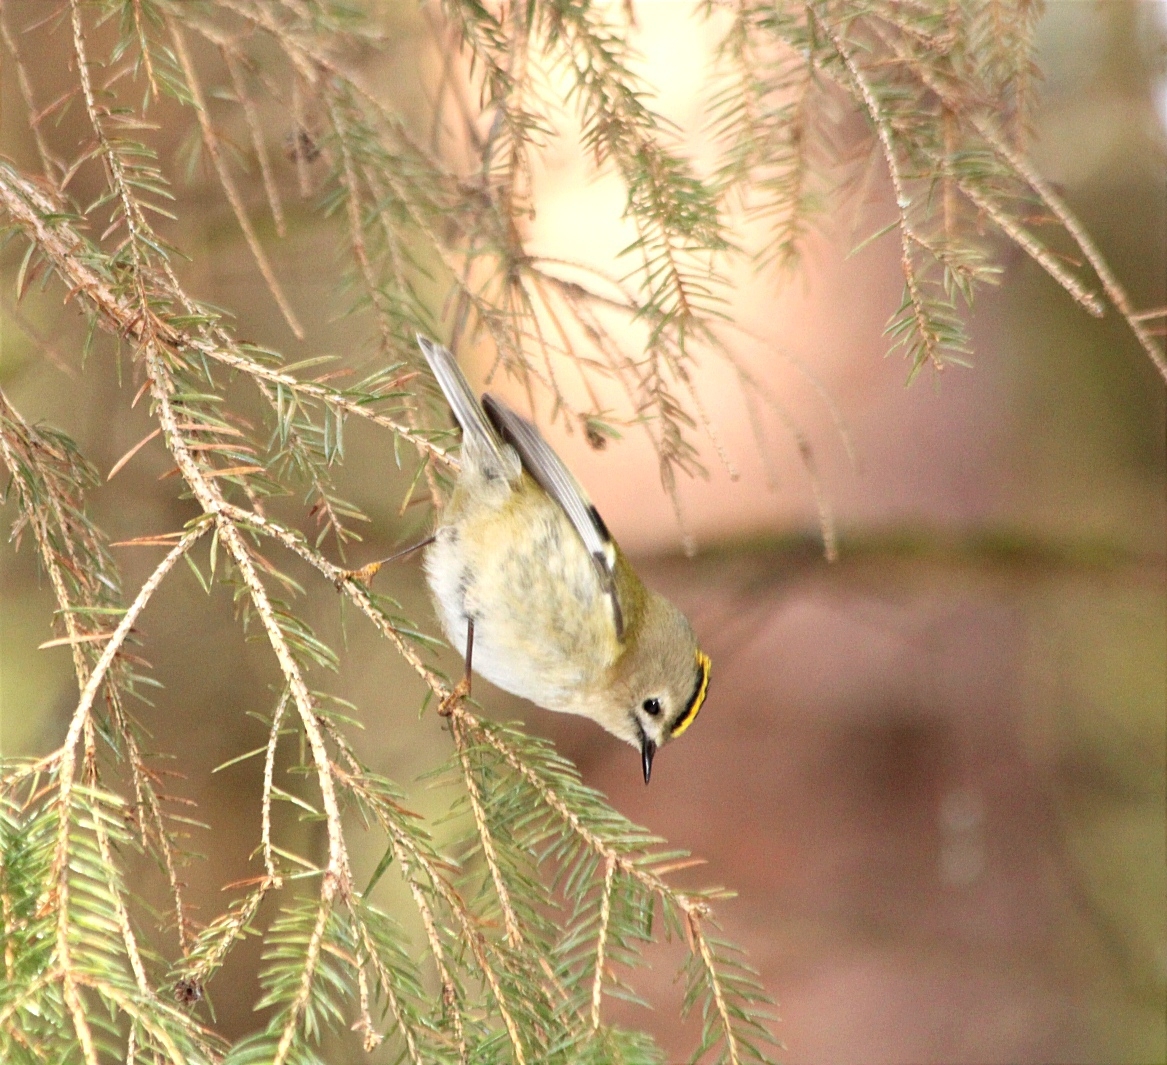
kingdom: Animalia
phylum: Chordata
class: Aves
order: Passeriformes
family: Regulidae
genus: Regulus
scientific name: Regulus regulus
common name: Goldcrest
